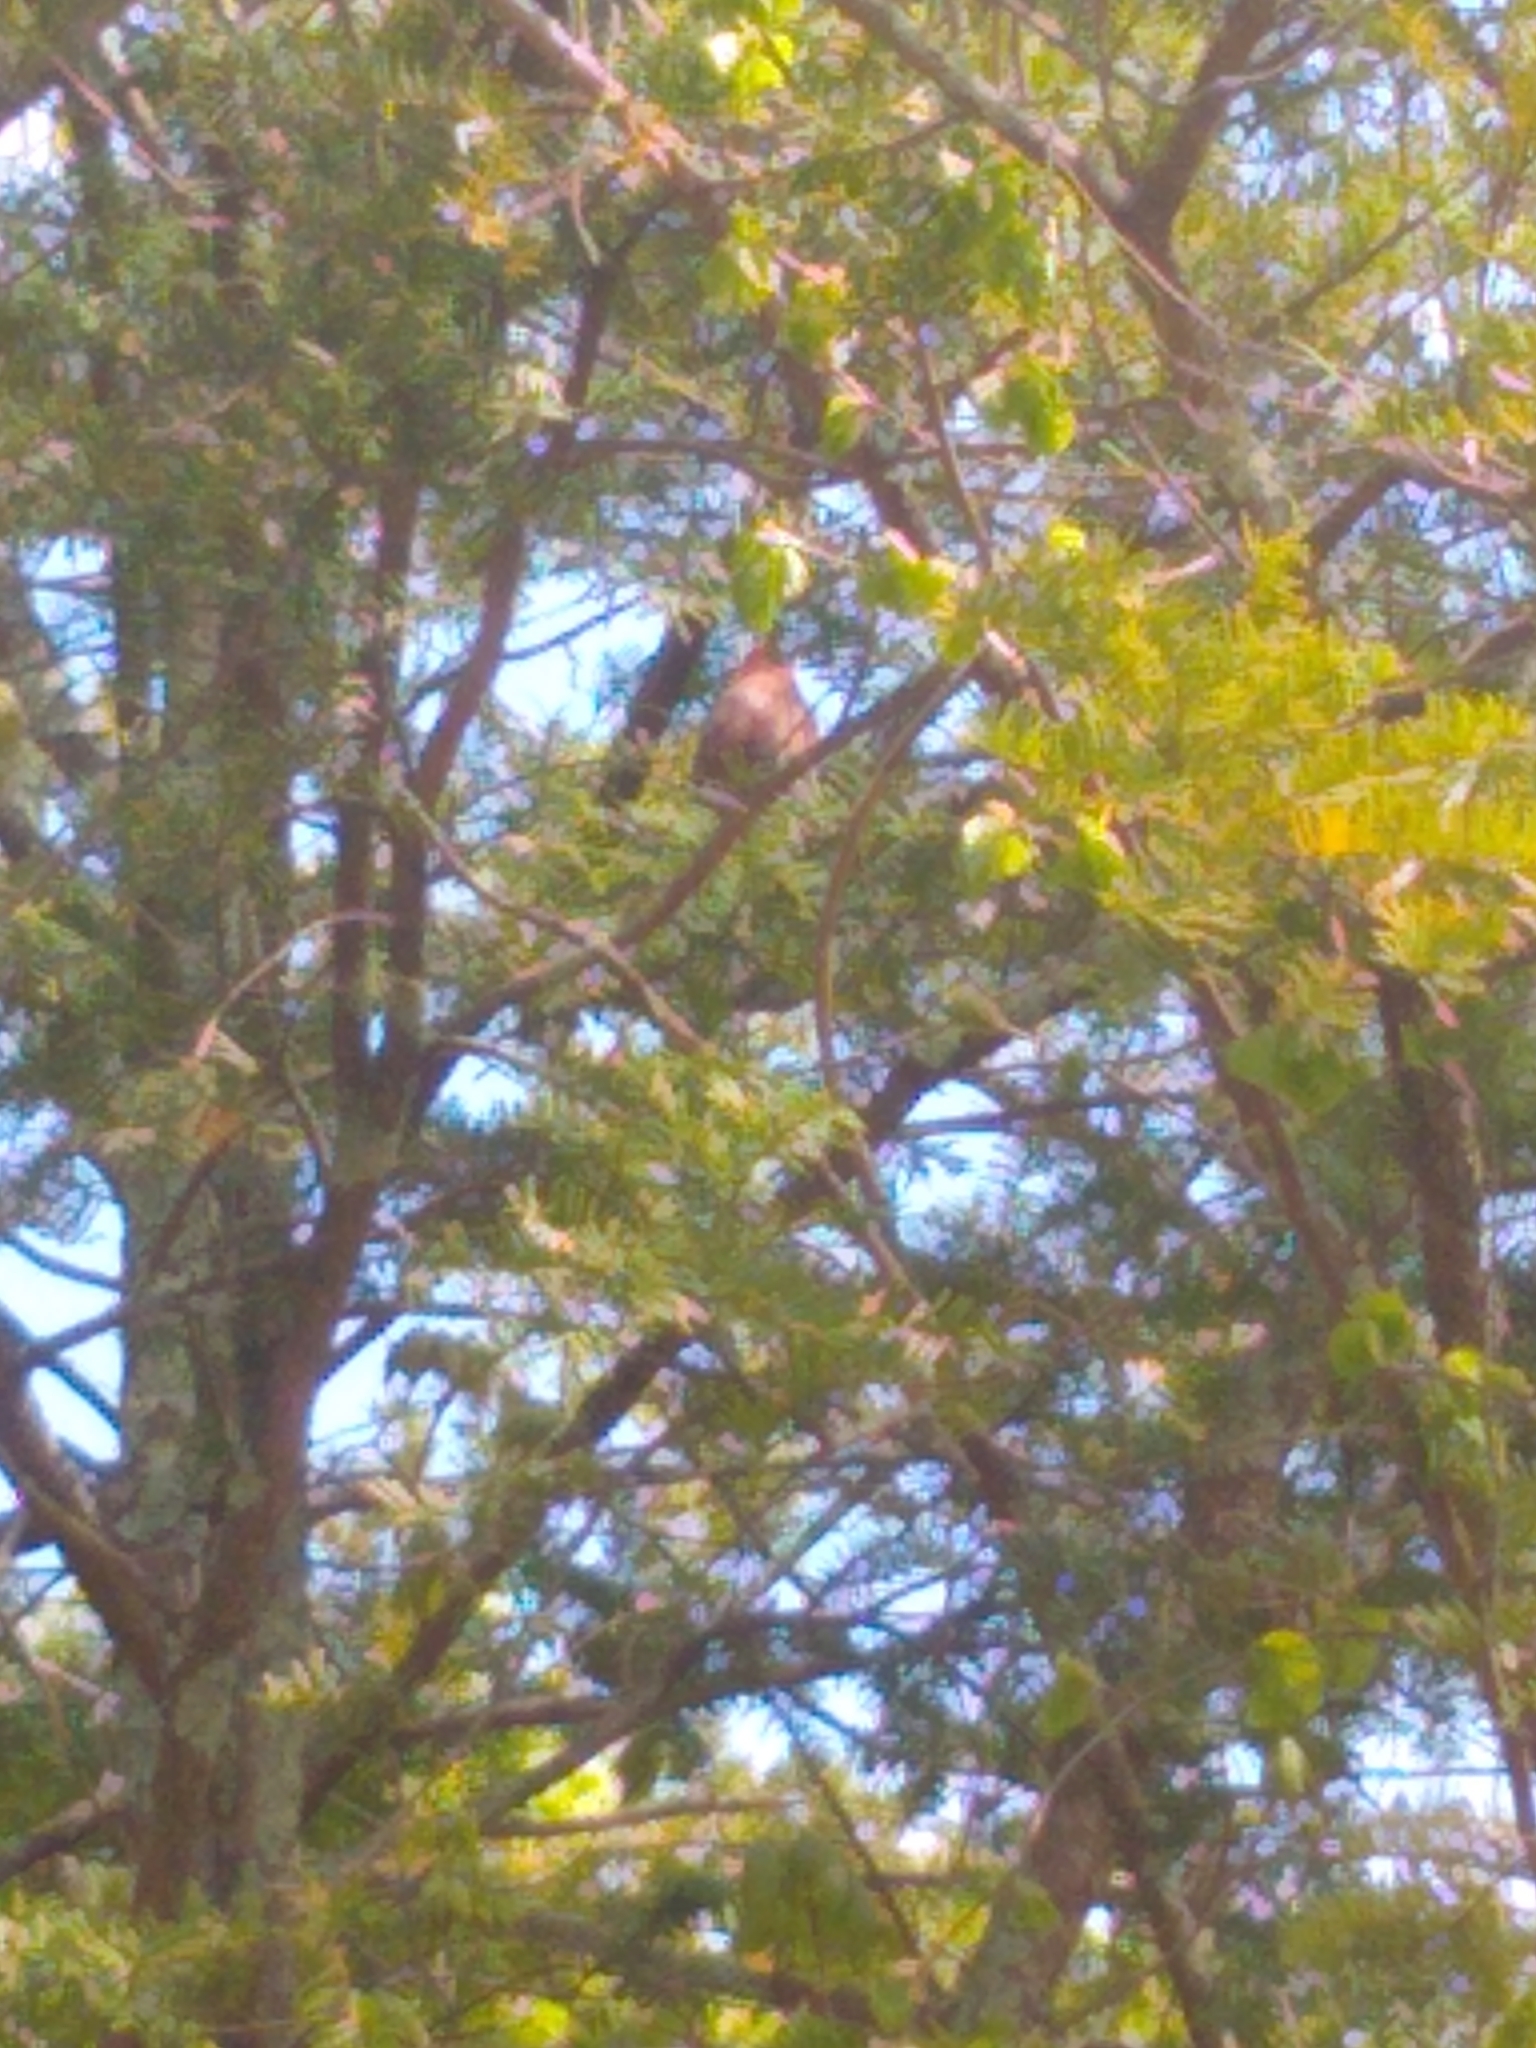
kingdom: Animalia
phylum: Chordata
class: Aves
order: Passeriformes
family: Cardinalidae
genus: Cardinalis
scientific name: Cardinalis cardinalis
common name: Northern cardinal
